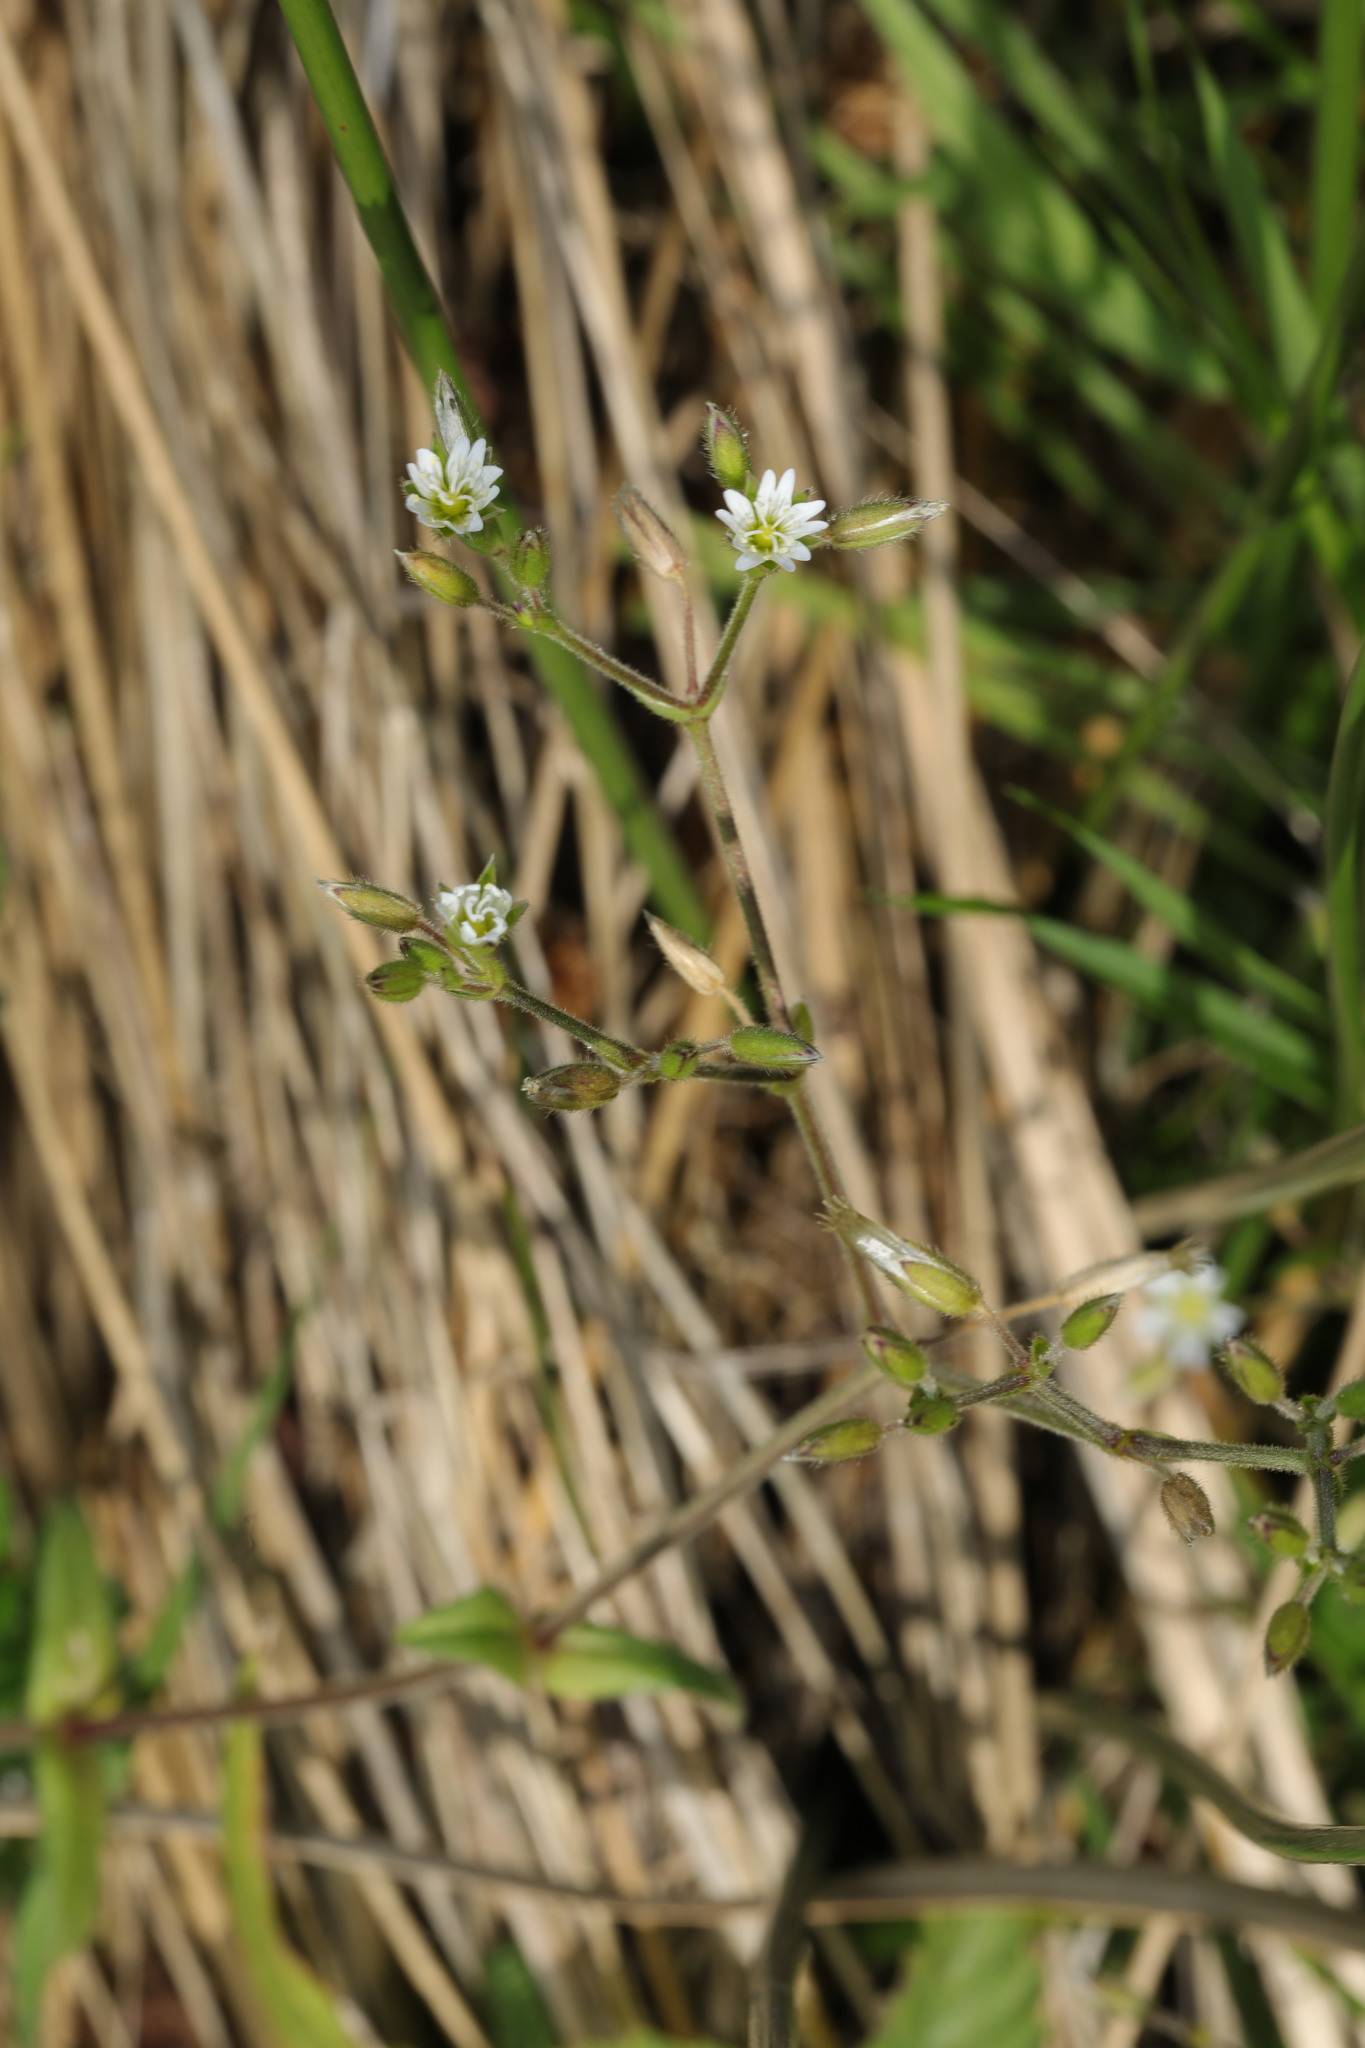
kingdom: Plantae
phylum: Tracheophyta
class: Magnoliopsida
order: Caryophyllales
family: Caryophyllaceae
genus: Cerastium
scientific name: Cerastium fontanum
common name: Common mouse-ear
